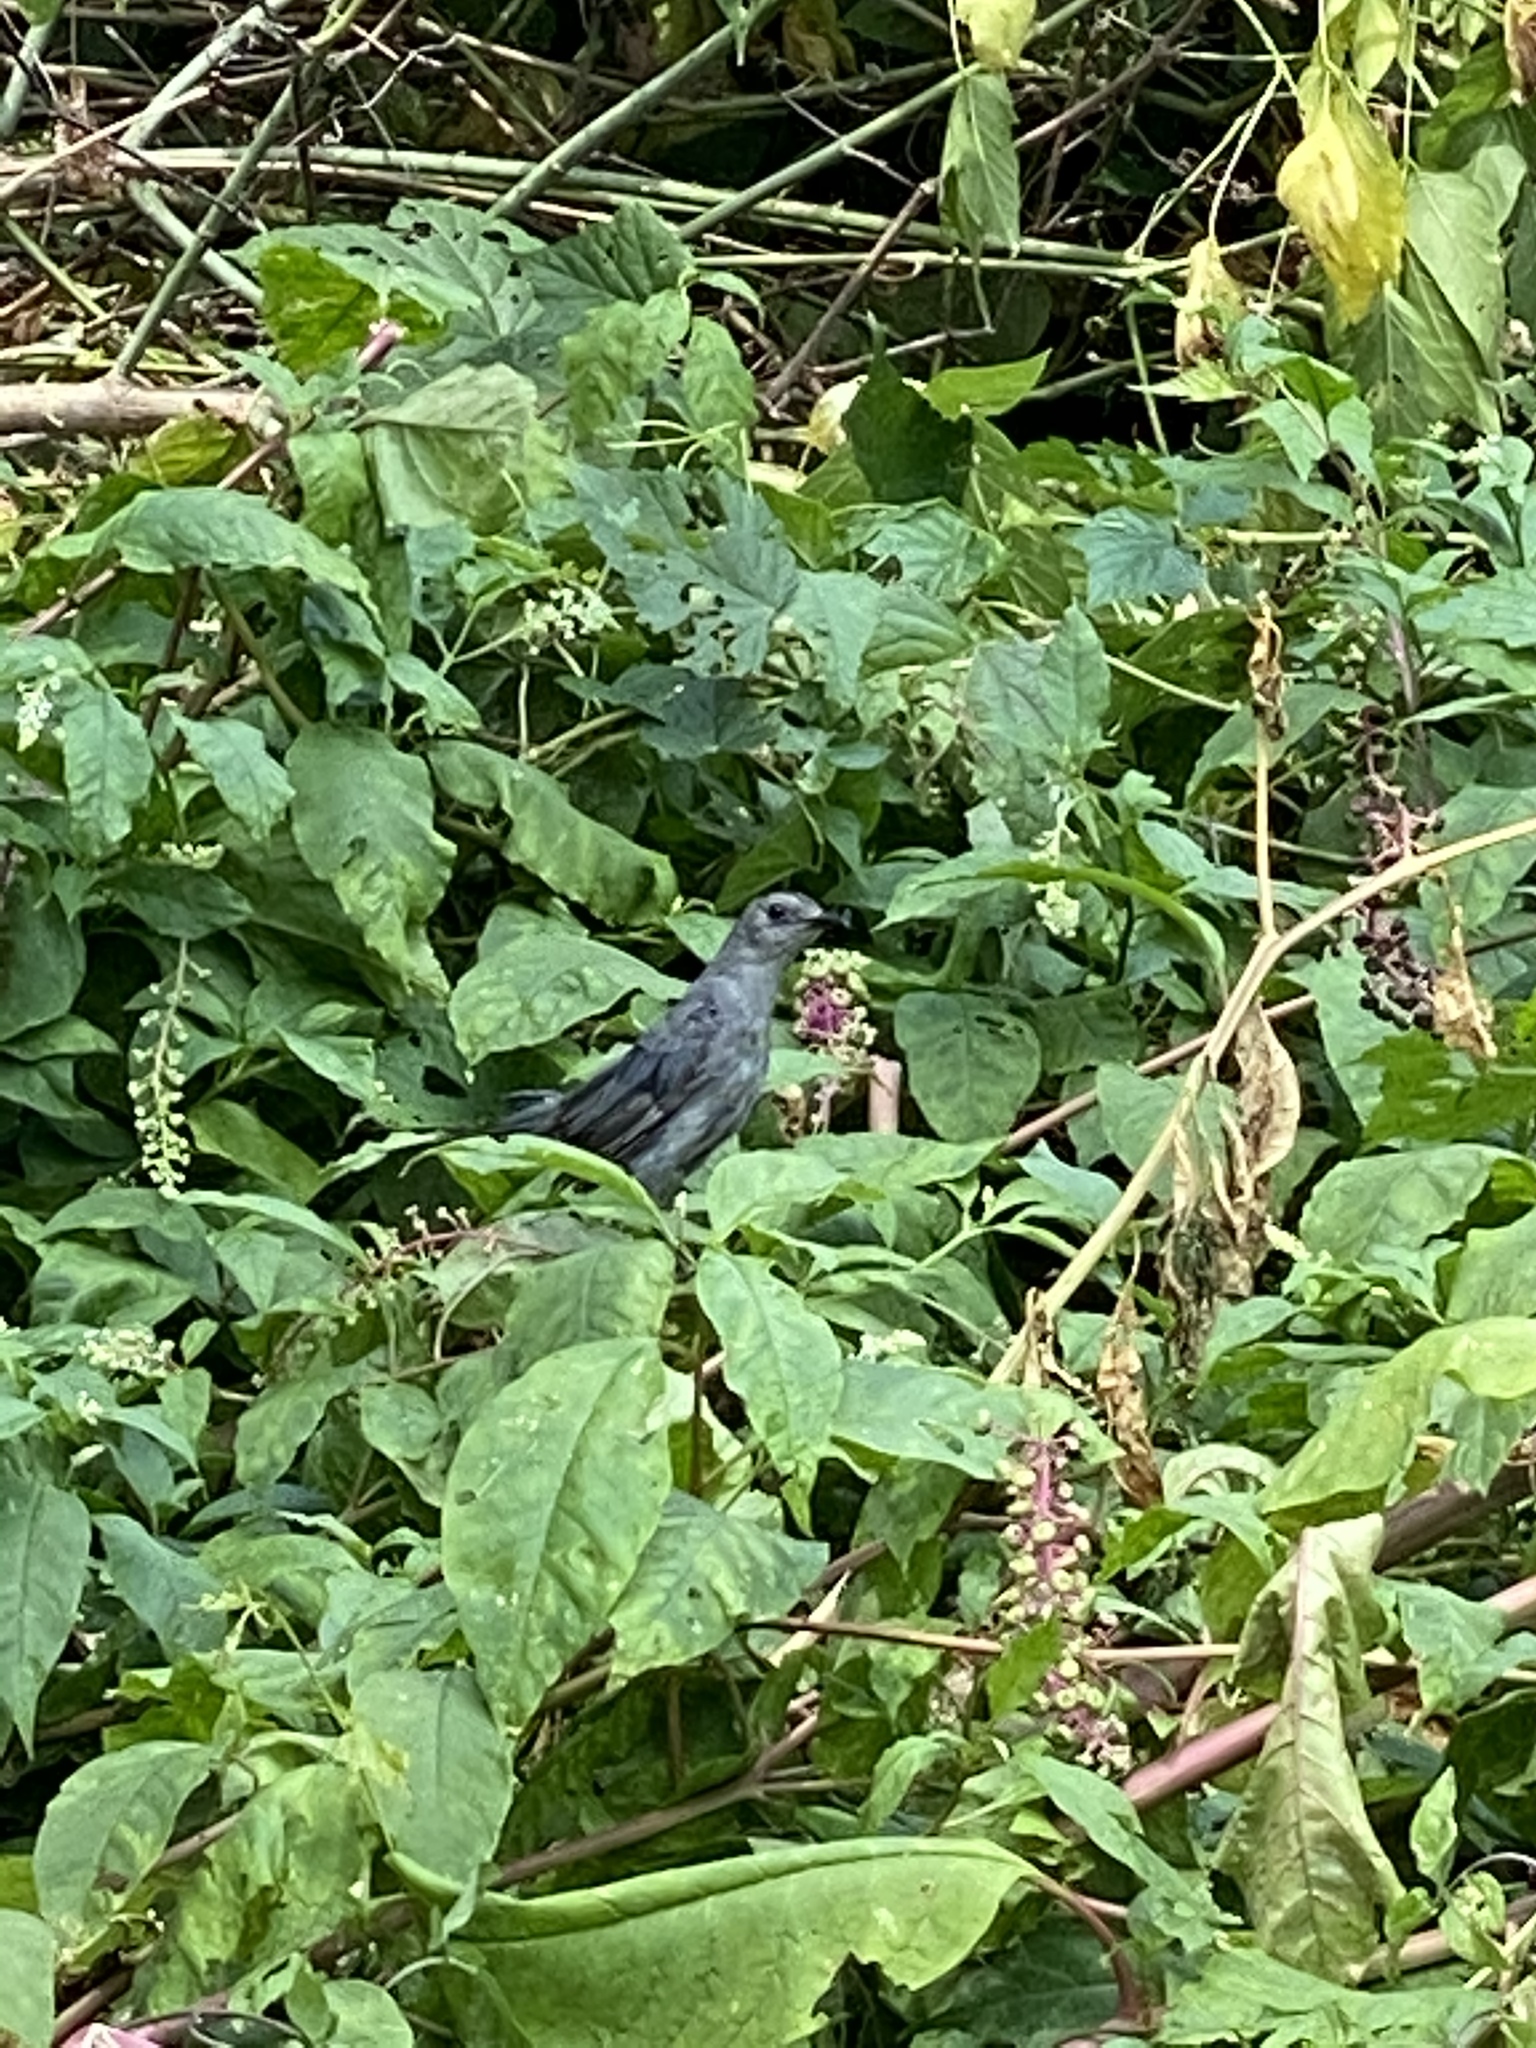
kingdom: Animalia
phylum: Chordata
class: Aves
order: Passeriformes
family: Mimidae
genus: Dumetella
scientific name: Dumetella carolinensis
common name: Gray catbird
